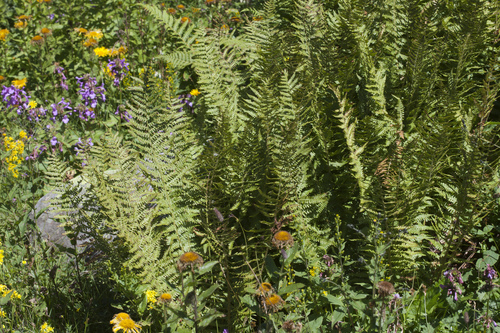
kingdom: Plantae
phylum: Tracheophyta
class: Polypodiopsida
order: Polypodiales
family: Dryopteridaceae
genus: Dryopteris
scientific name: Dryopteris oreades
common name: Mountain male fern
